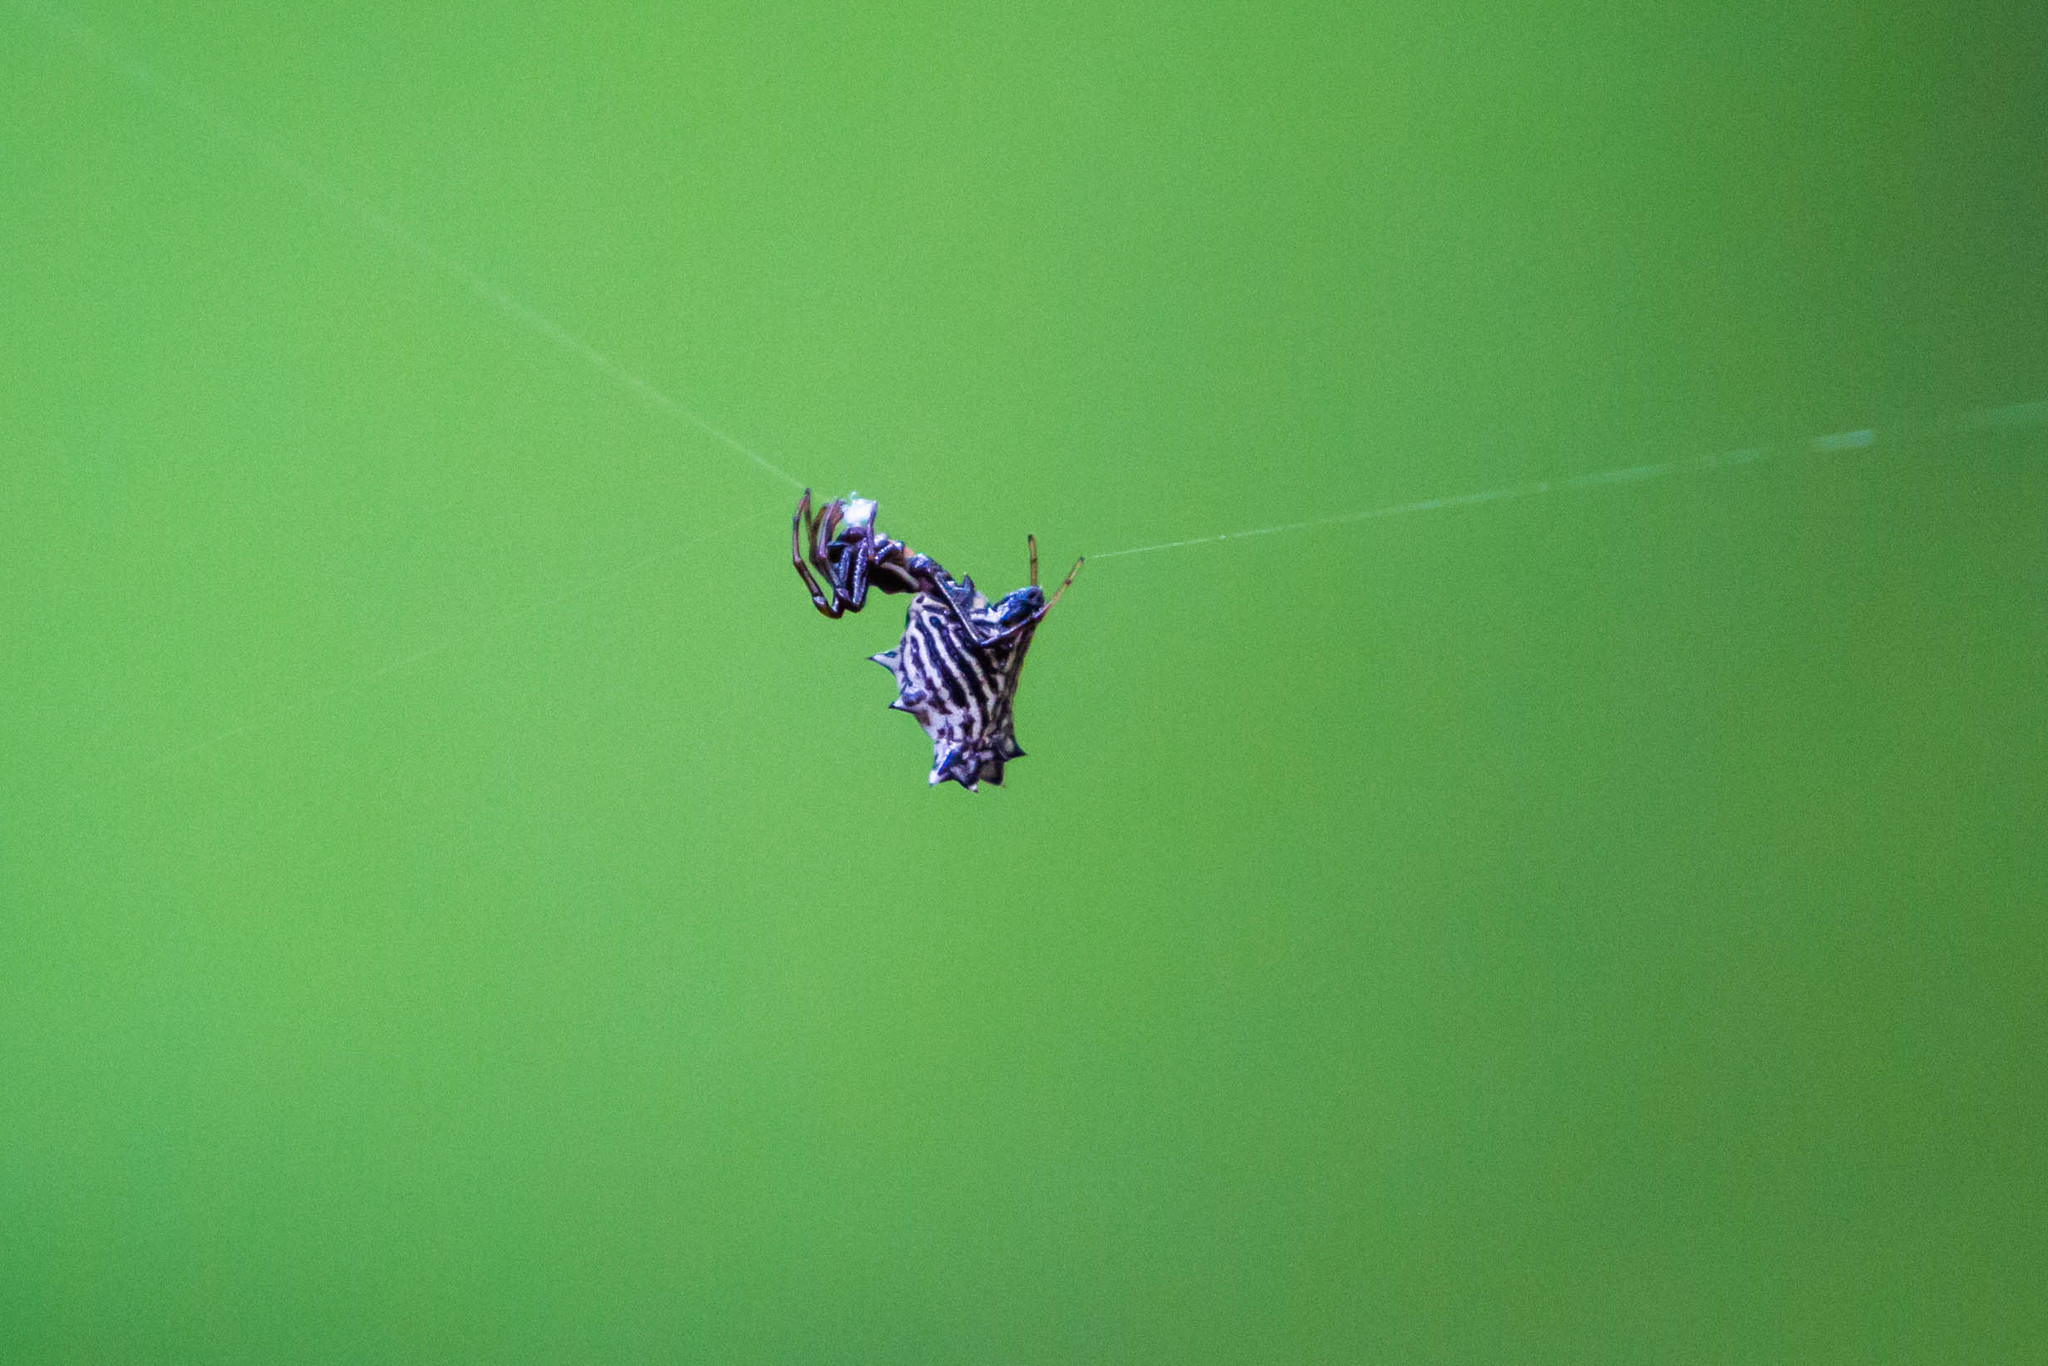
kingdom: Animalia
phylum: Arthropoda
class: Arachnida
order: Araneae
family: Araneidae
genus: Micrathena
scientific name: Micrathena gracilis
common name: Orb weavers
